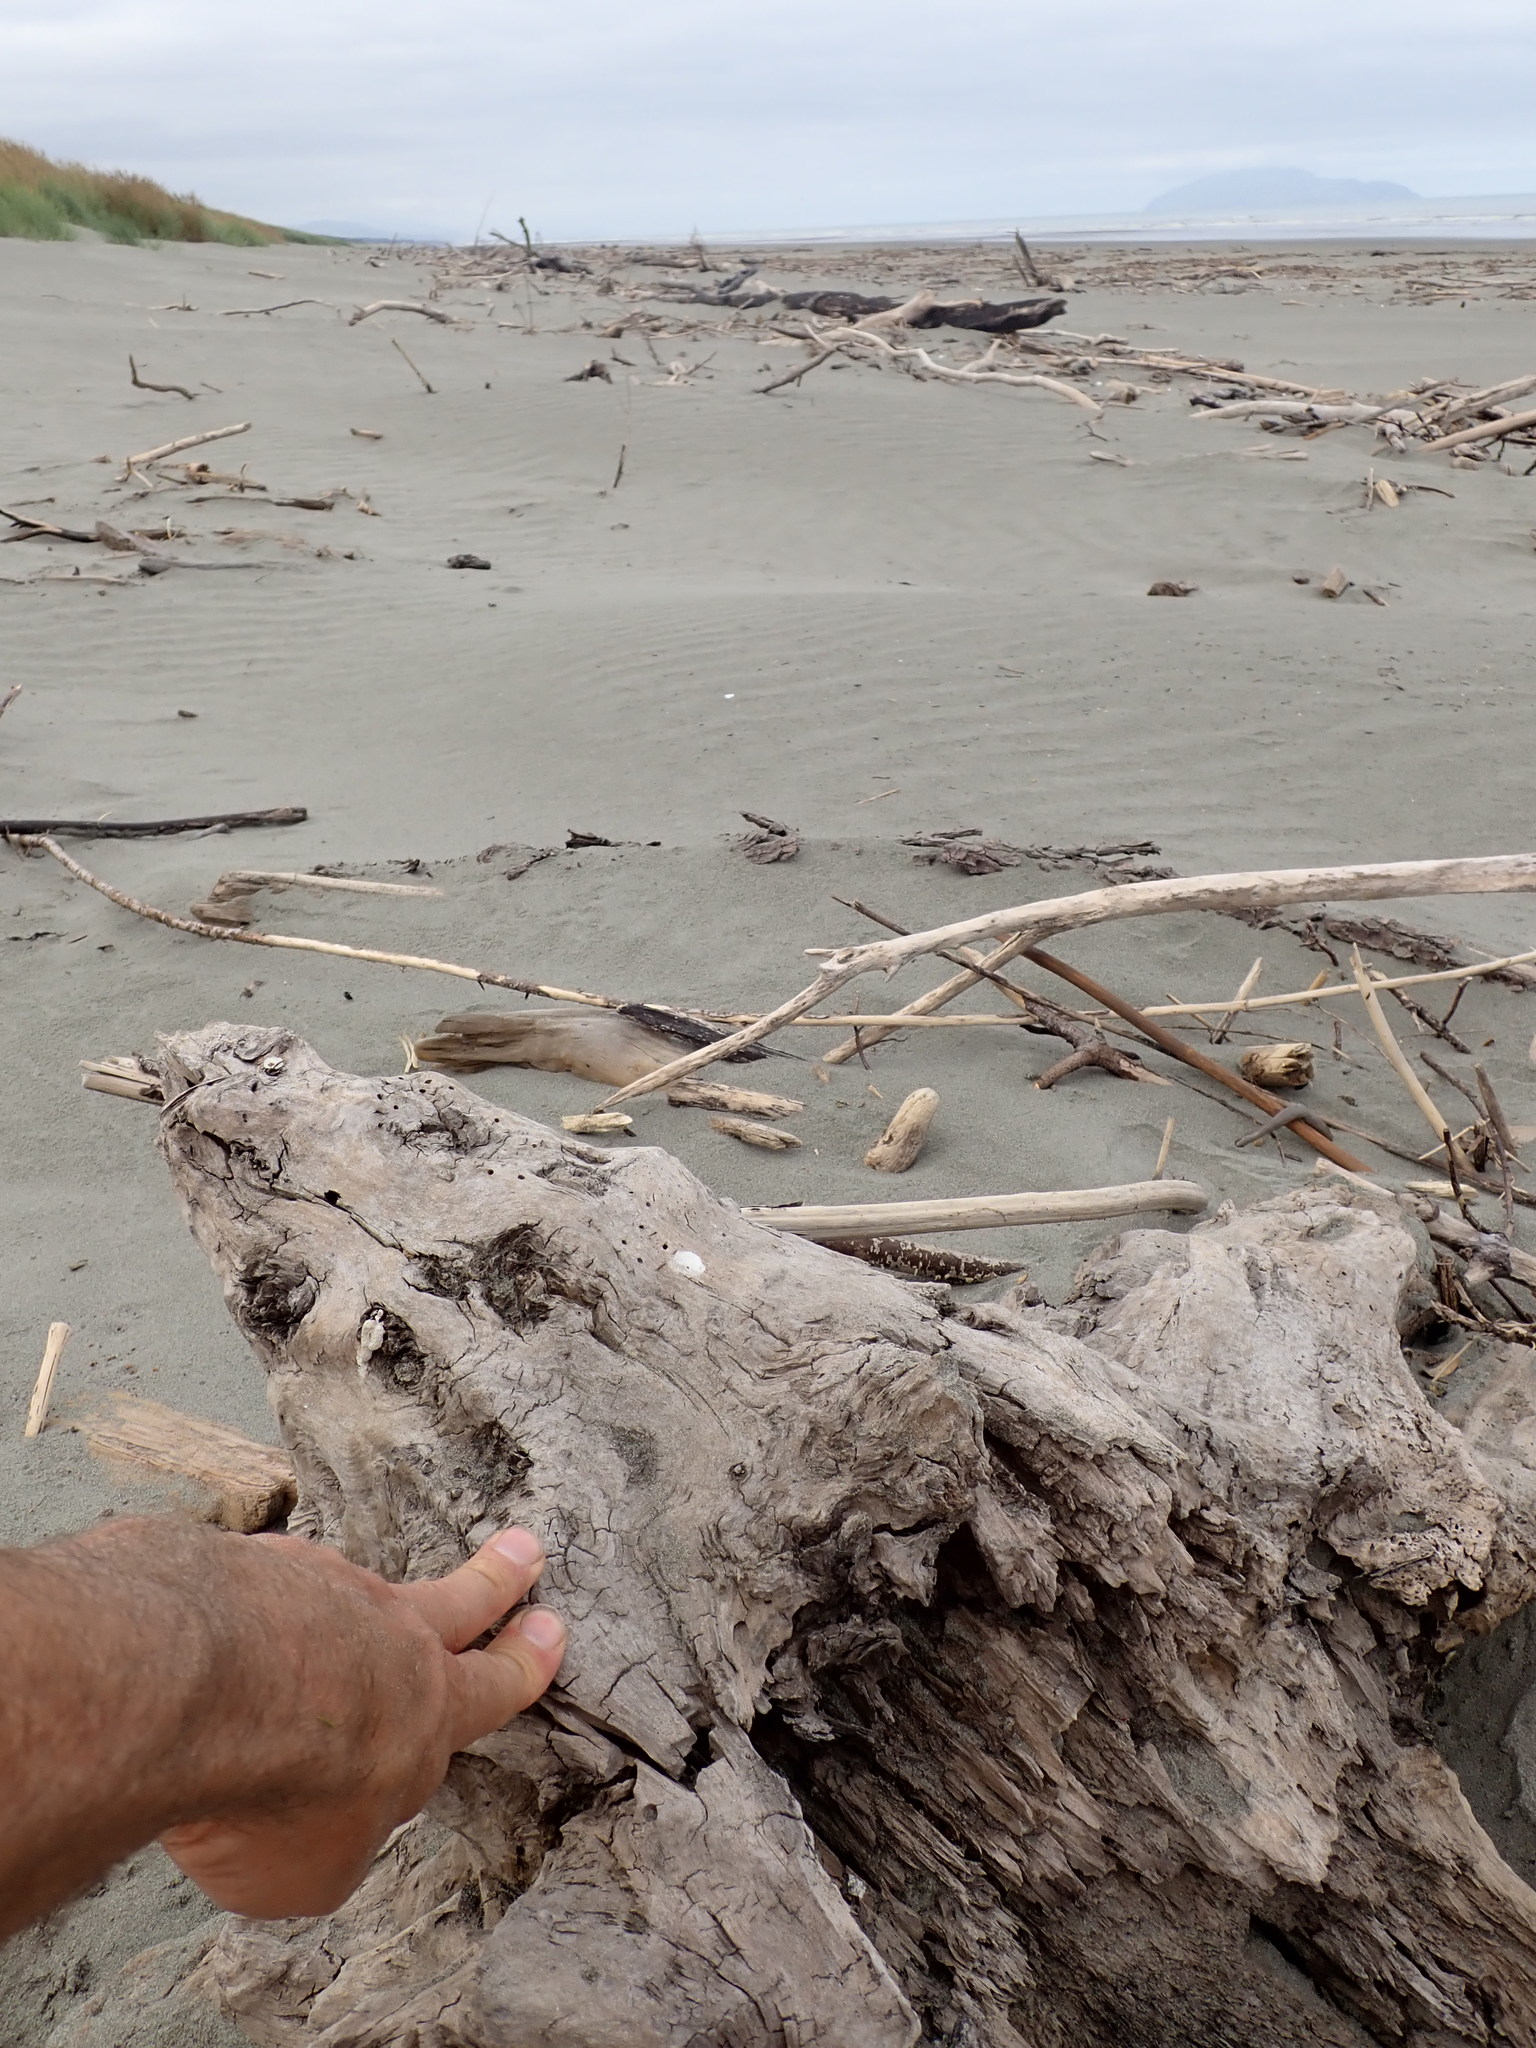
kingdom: Animalia
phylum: Arthropoda
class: Insecta
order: Coleoptera
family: Scarabaeidae
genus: Pericoptus
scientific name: Pericoptus truncatus
